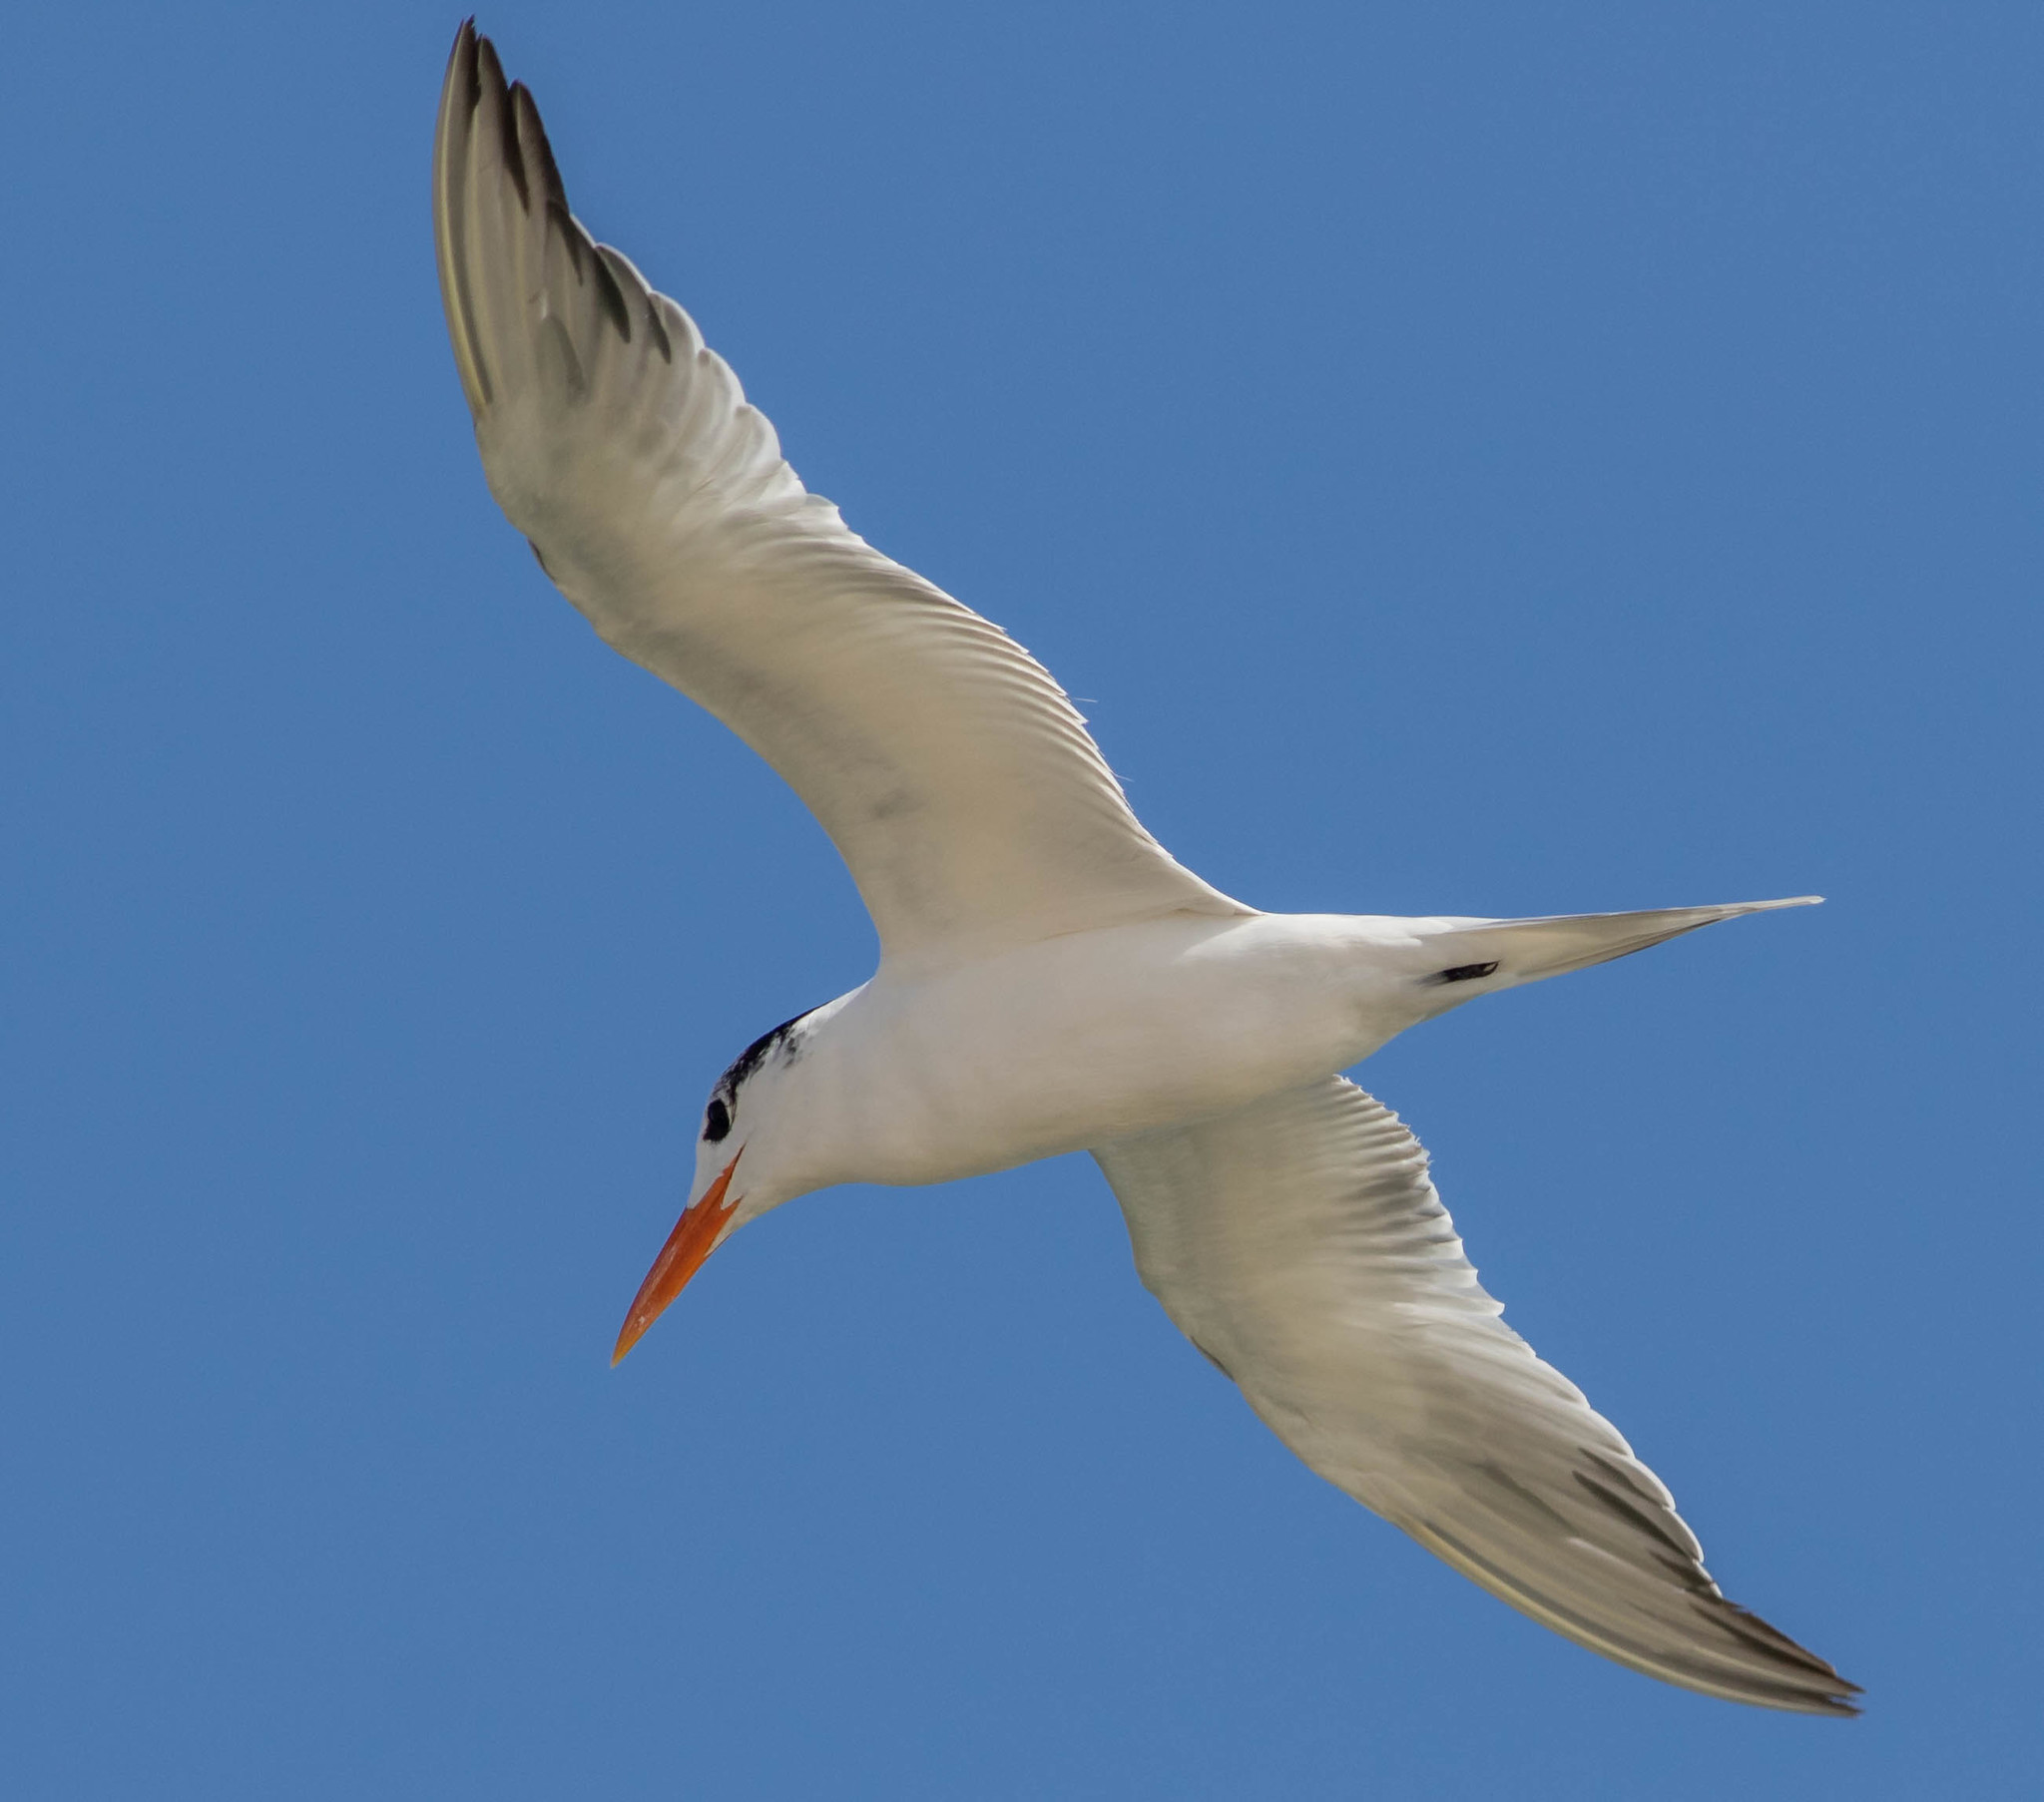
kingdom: Animalia
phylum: Chordata
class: Aves
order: Charadriiformes
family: Laridae
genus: Thalasseus
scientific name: Thalasseus maximus
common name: Royal tern
